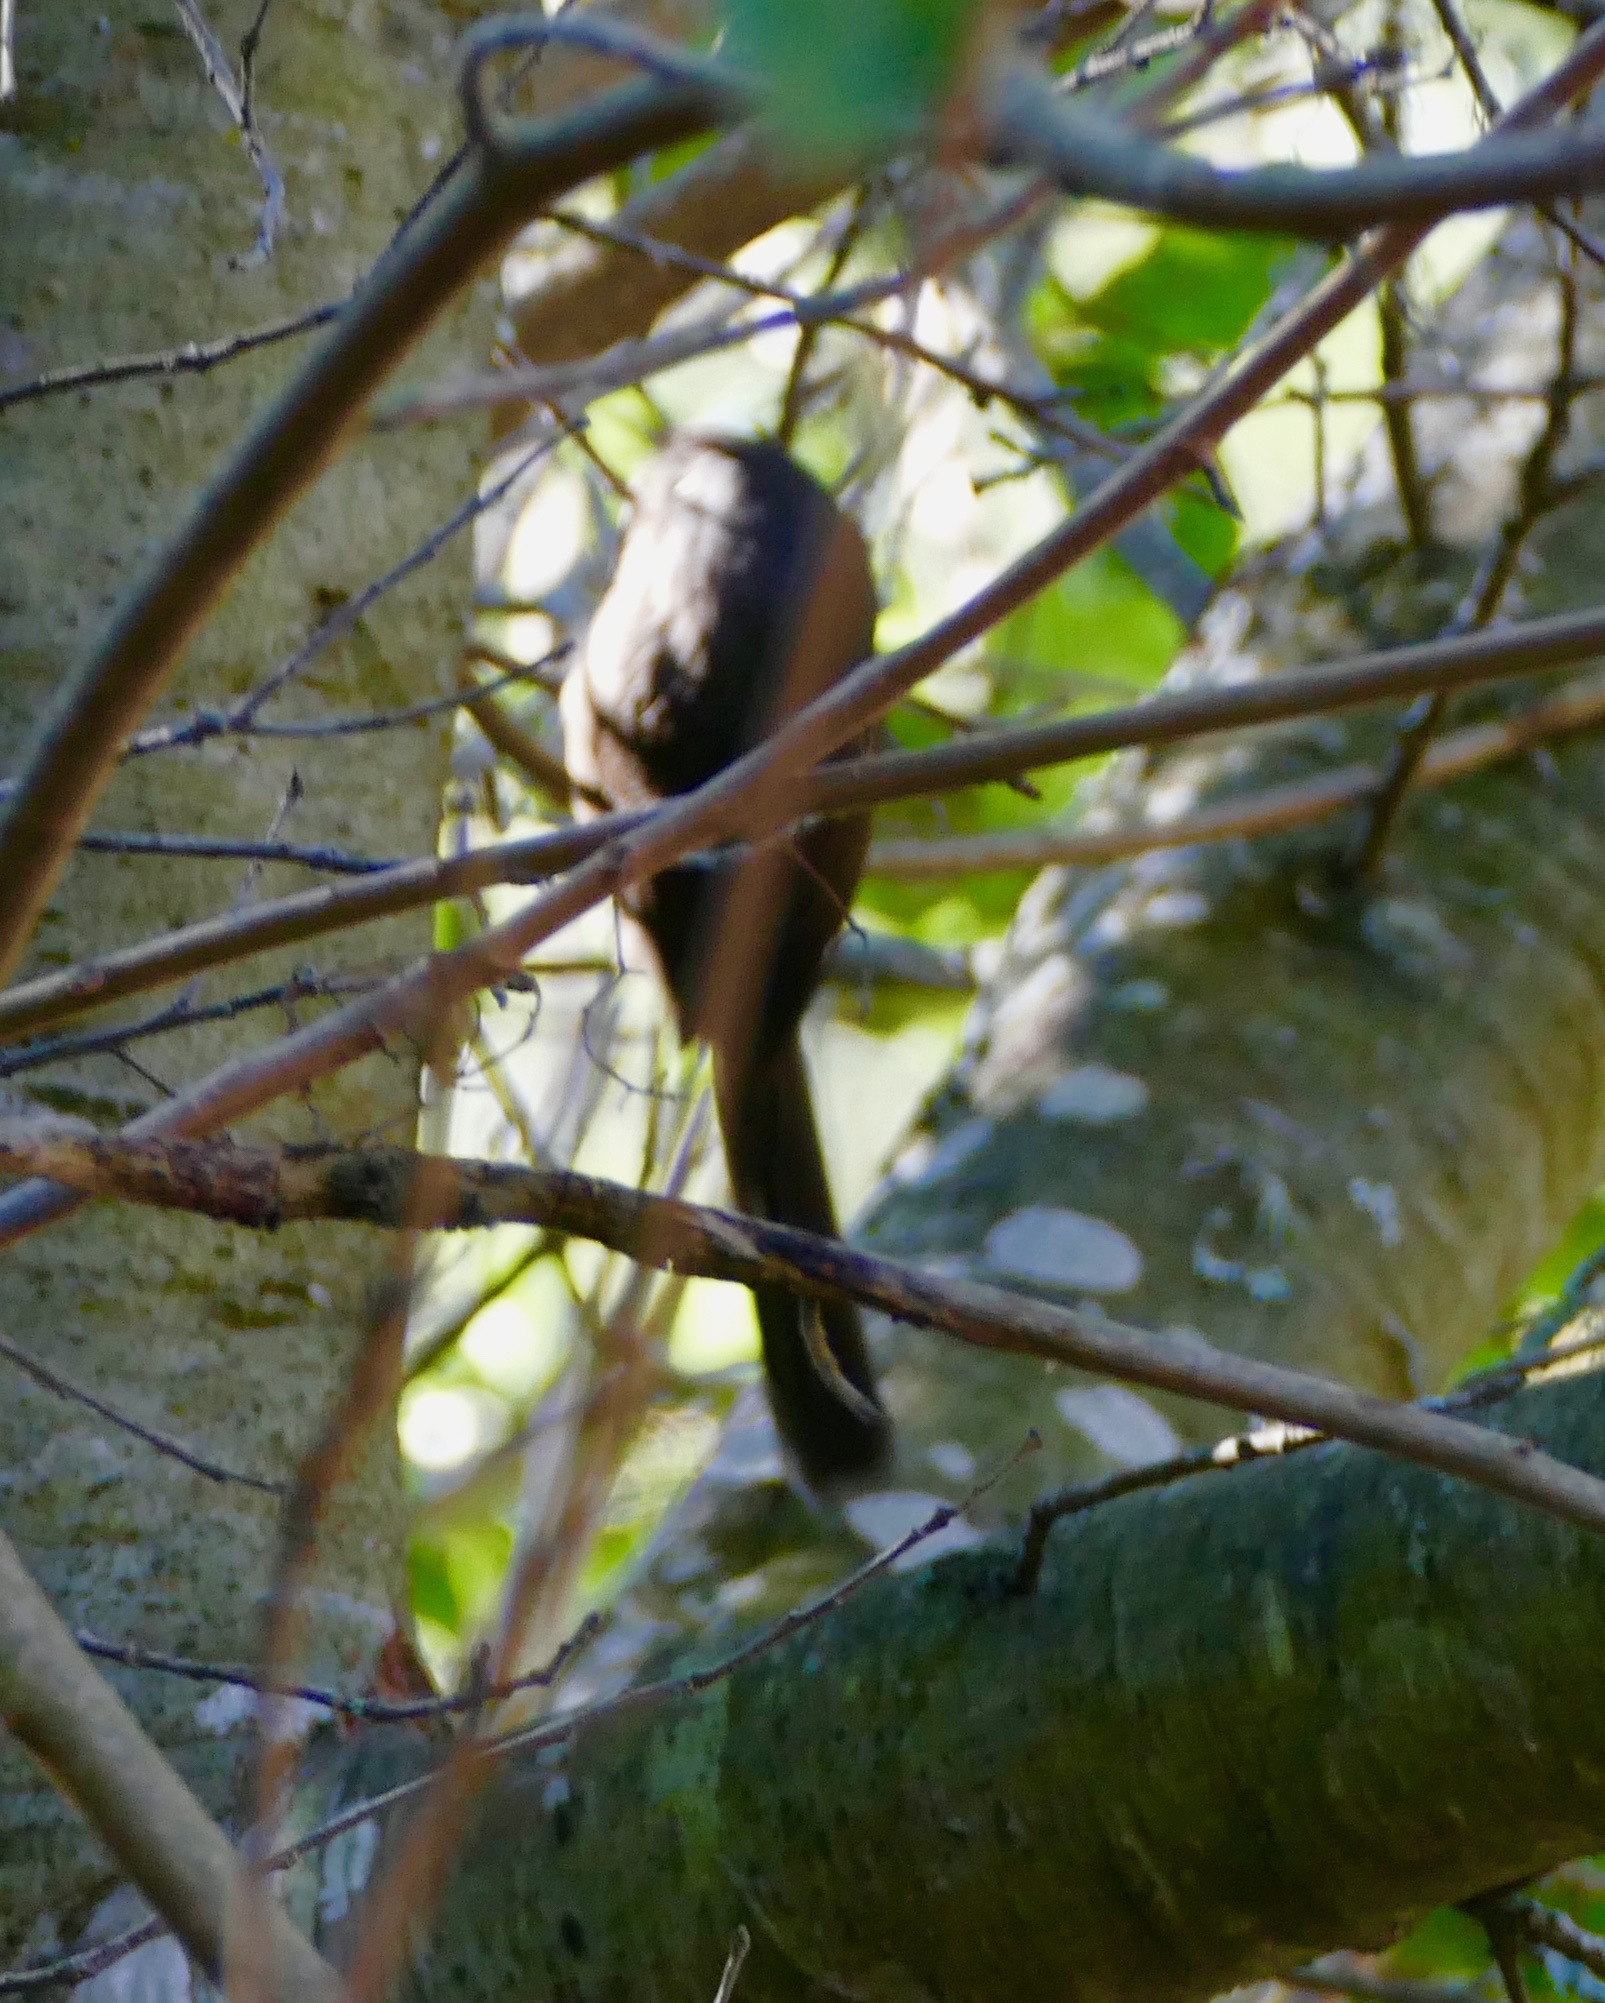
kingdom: Animalia
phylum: Chordata
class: Aves
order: Passeriformes
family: Sylviidae
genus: Chamaea
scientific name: Chamaea fasciata
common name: Wrentit
